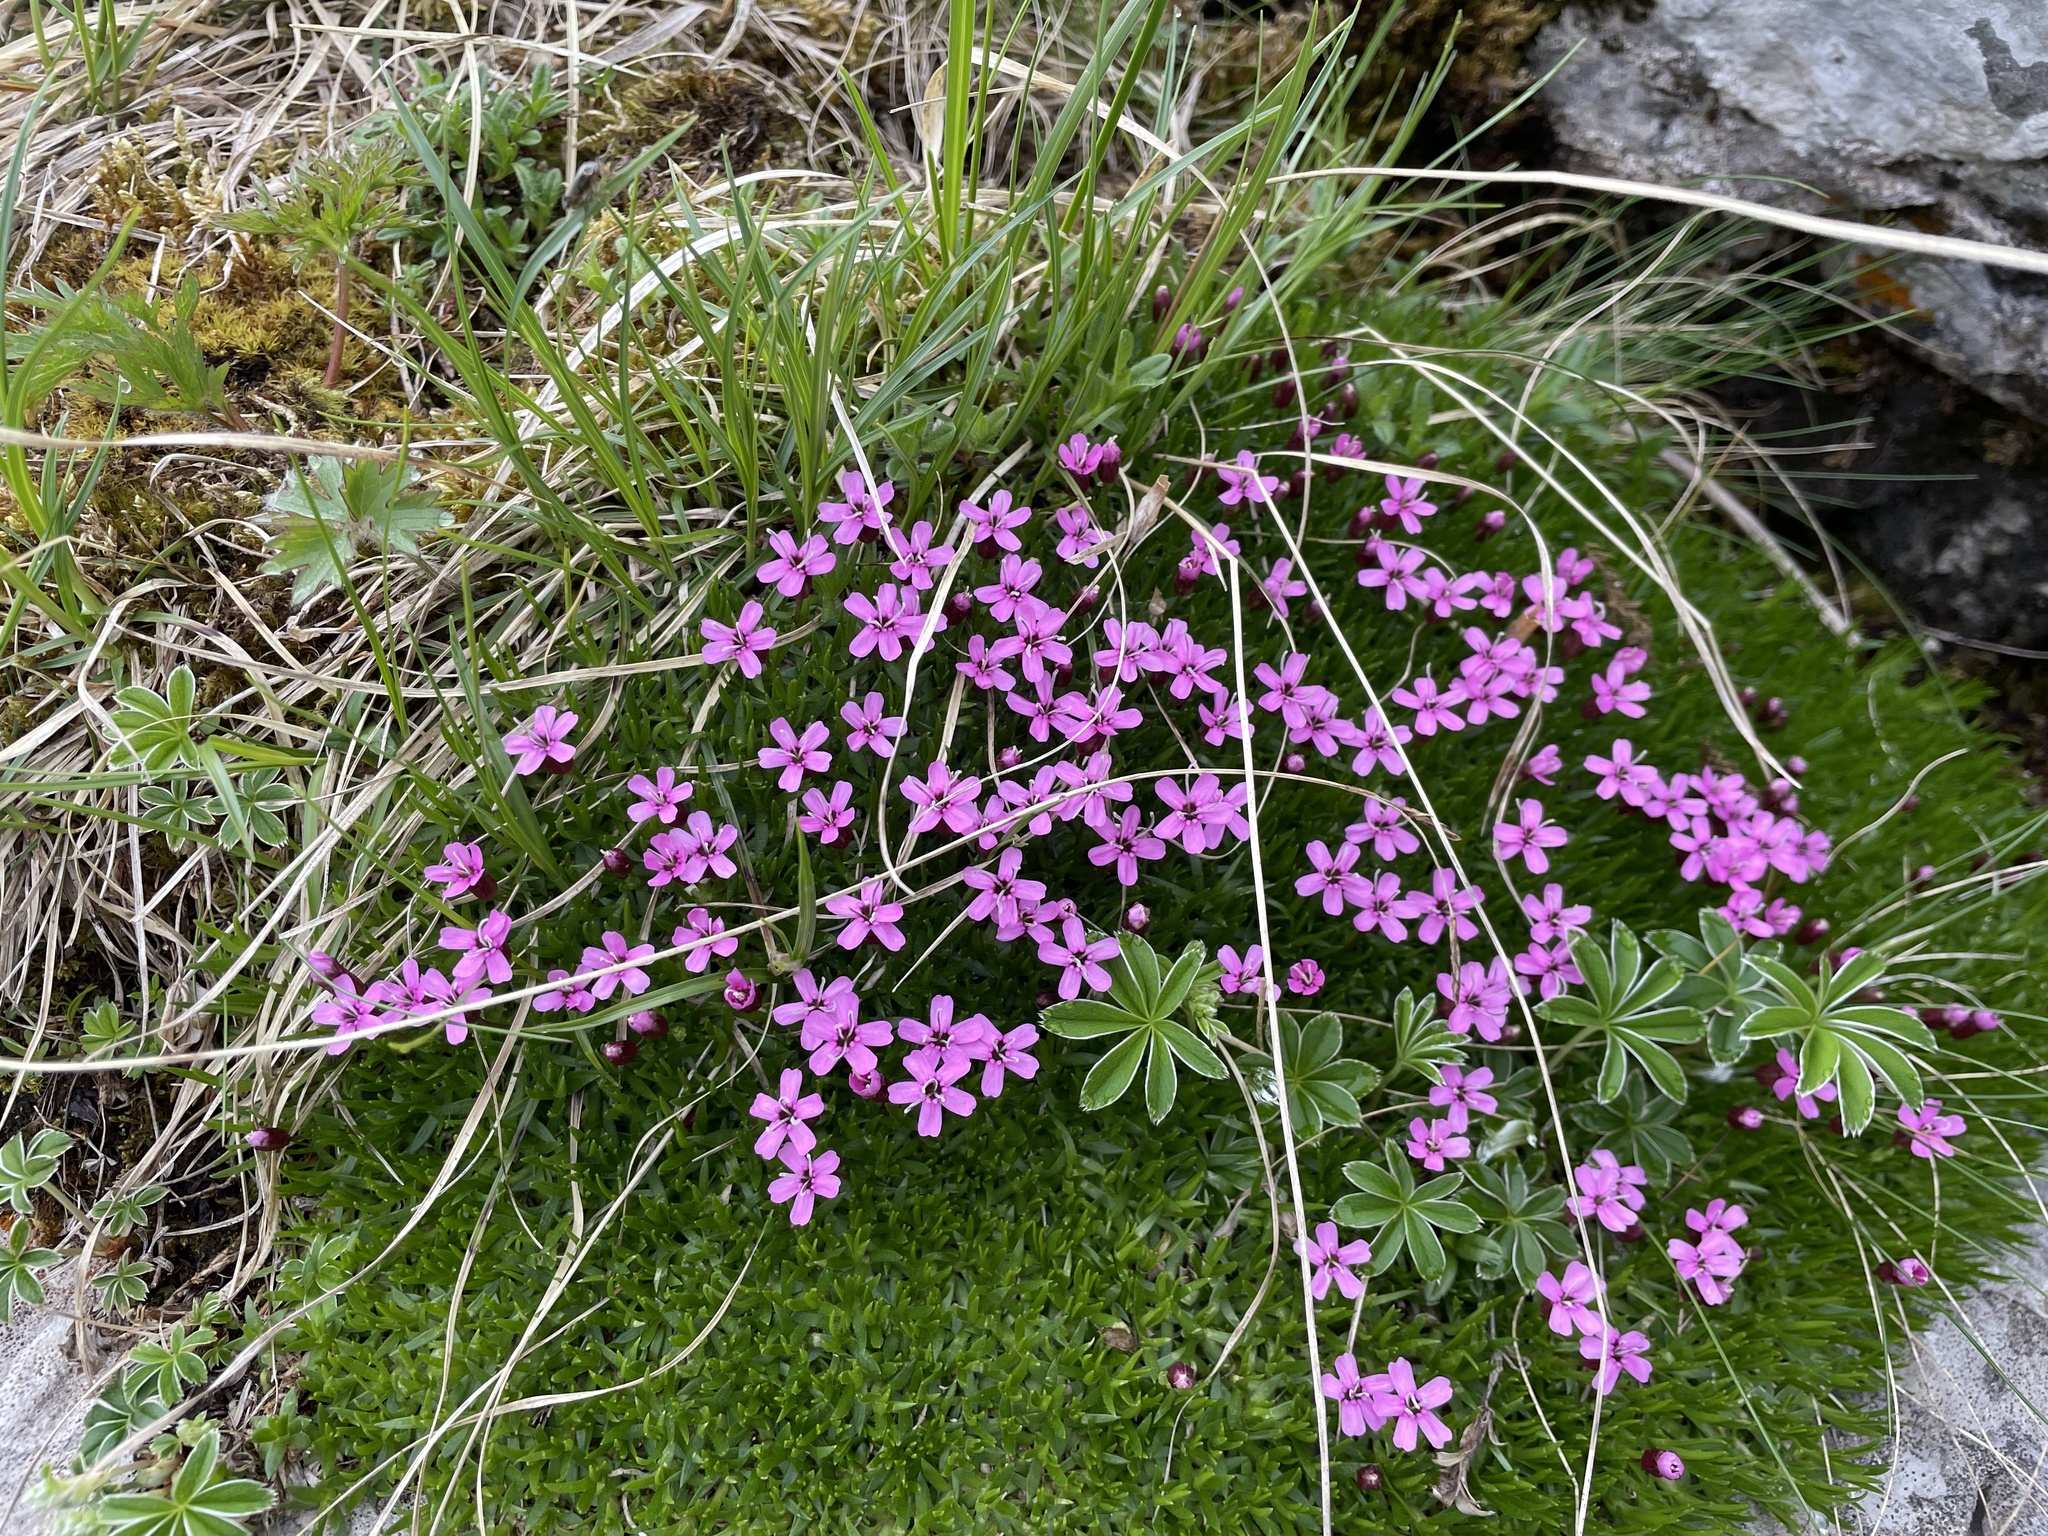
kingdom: Plantae
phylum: Tracheophyta
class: Magnoliopsida
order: Caryophyllales
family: Caryophyllaceae
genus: Silene
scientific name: Silene acaulis
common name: Moss campion
